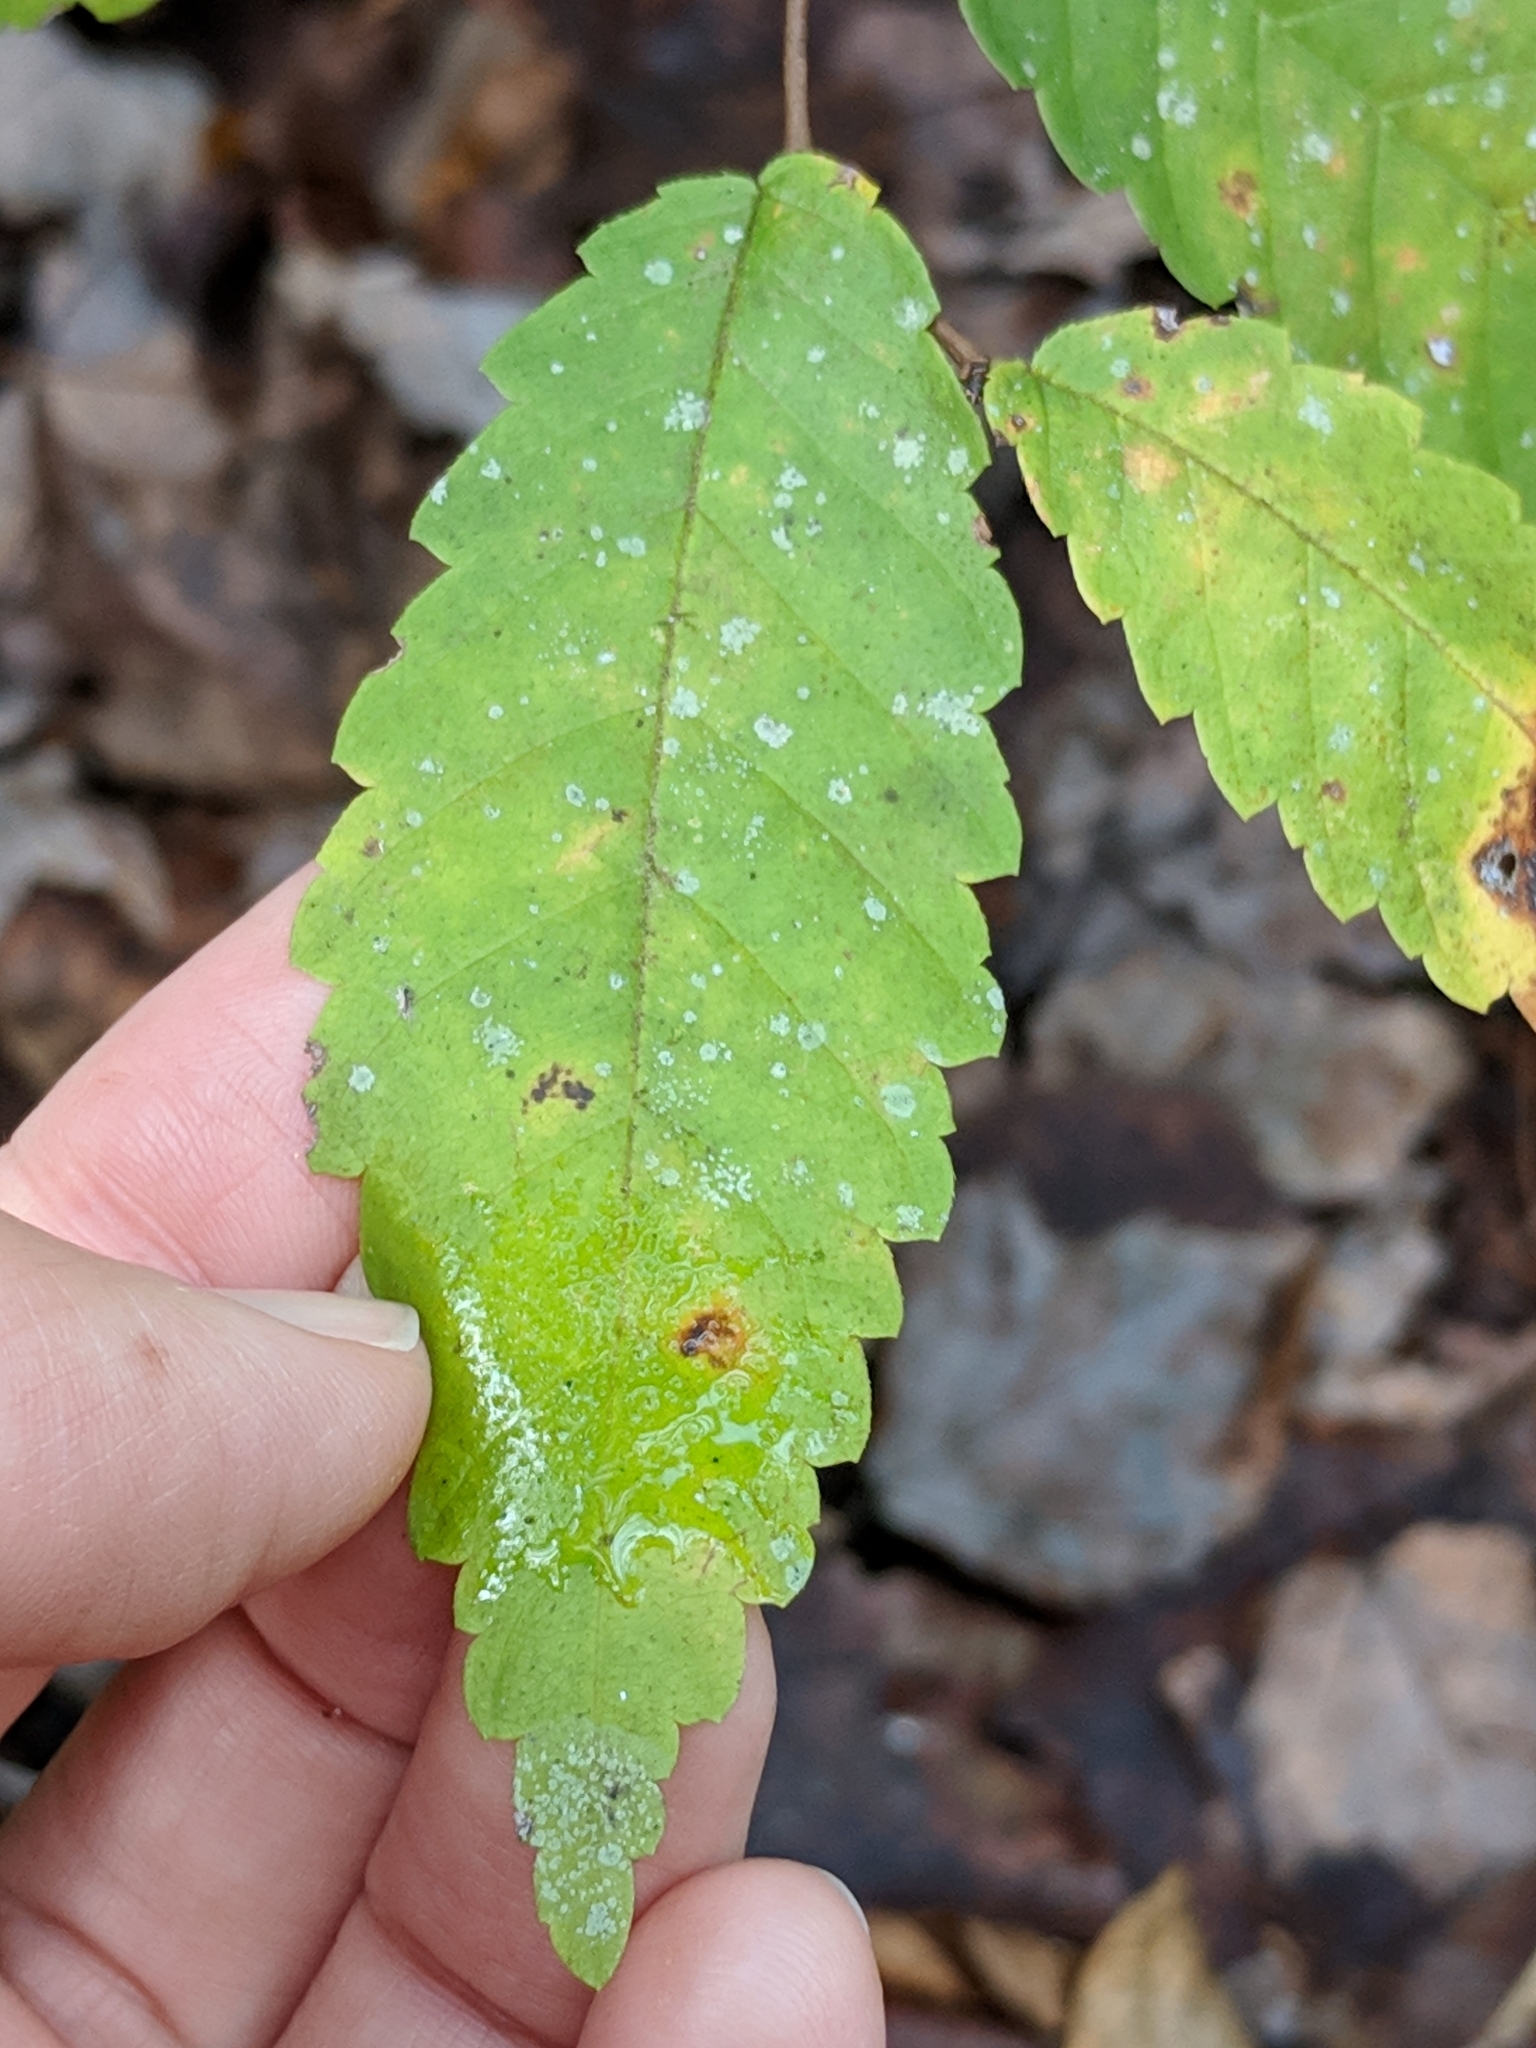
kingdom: Plantae
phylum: Tracheophyta
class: Magnoliopsida
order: Rosales
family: Ulmaceae
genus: Ulmus
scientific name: Ulmus alata
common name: Winged elm
